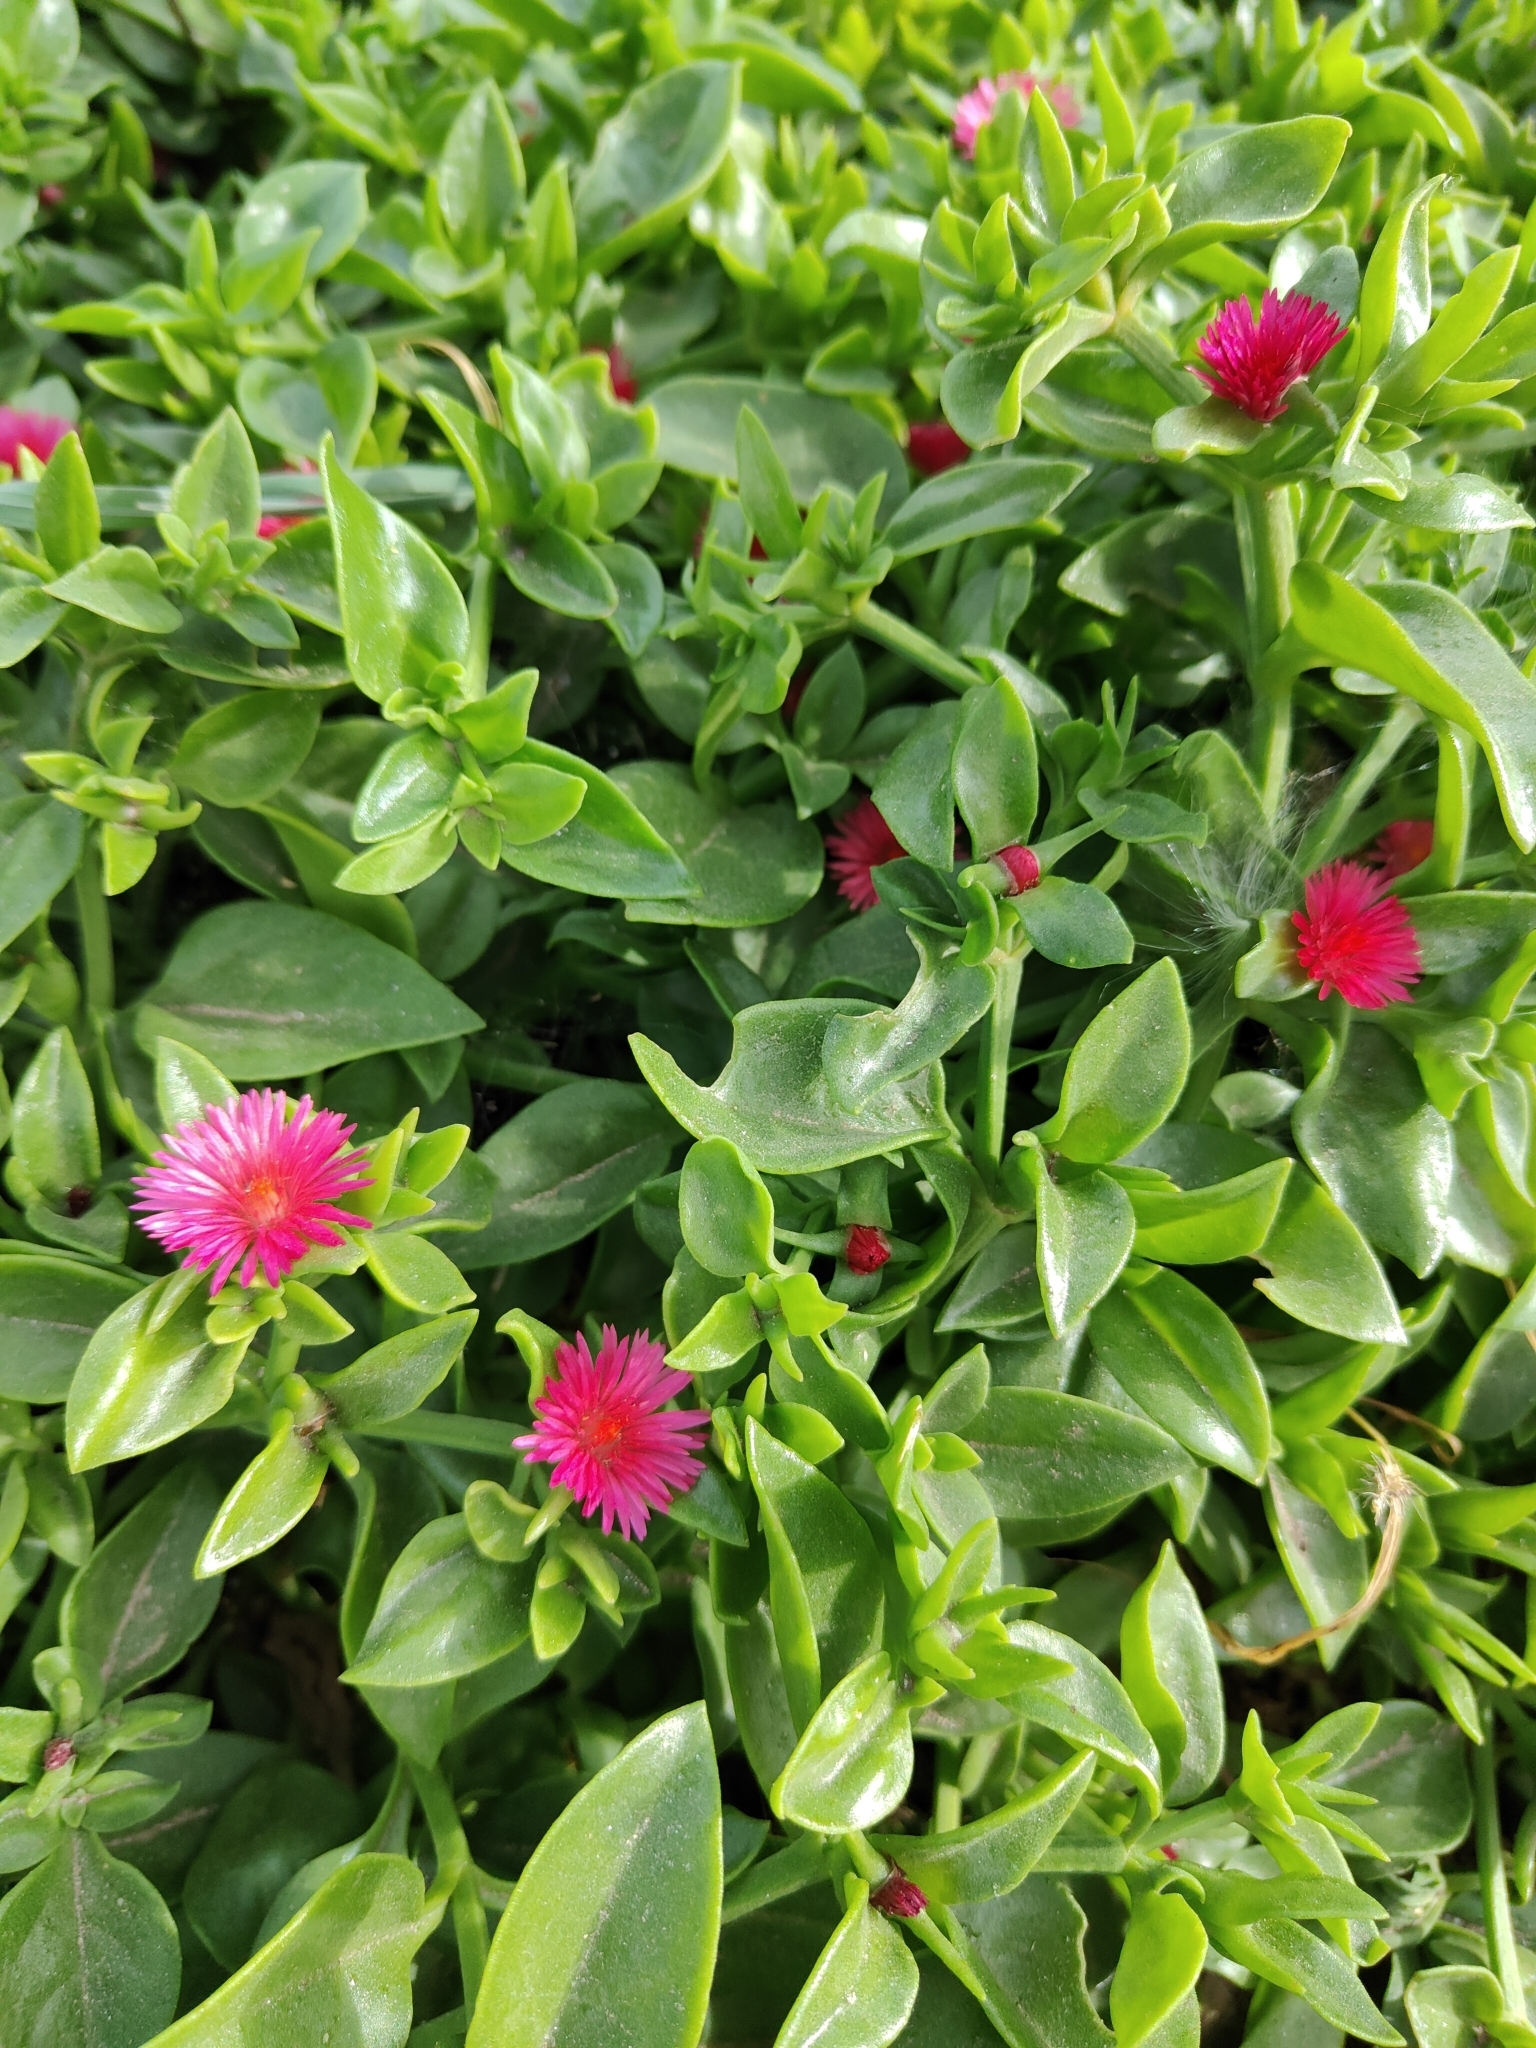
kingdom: Plantae
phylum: Tracheophyta
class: Magnoliopsida
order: Caryophyllales
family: Aizoaceae
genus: Mesembryanthemum
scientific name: Mesembryanthemum cordifolium
